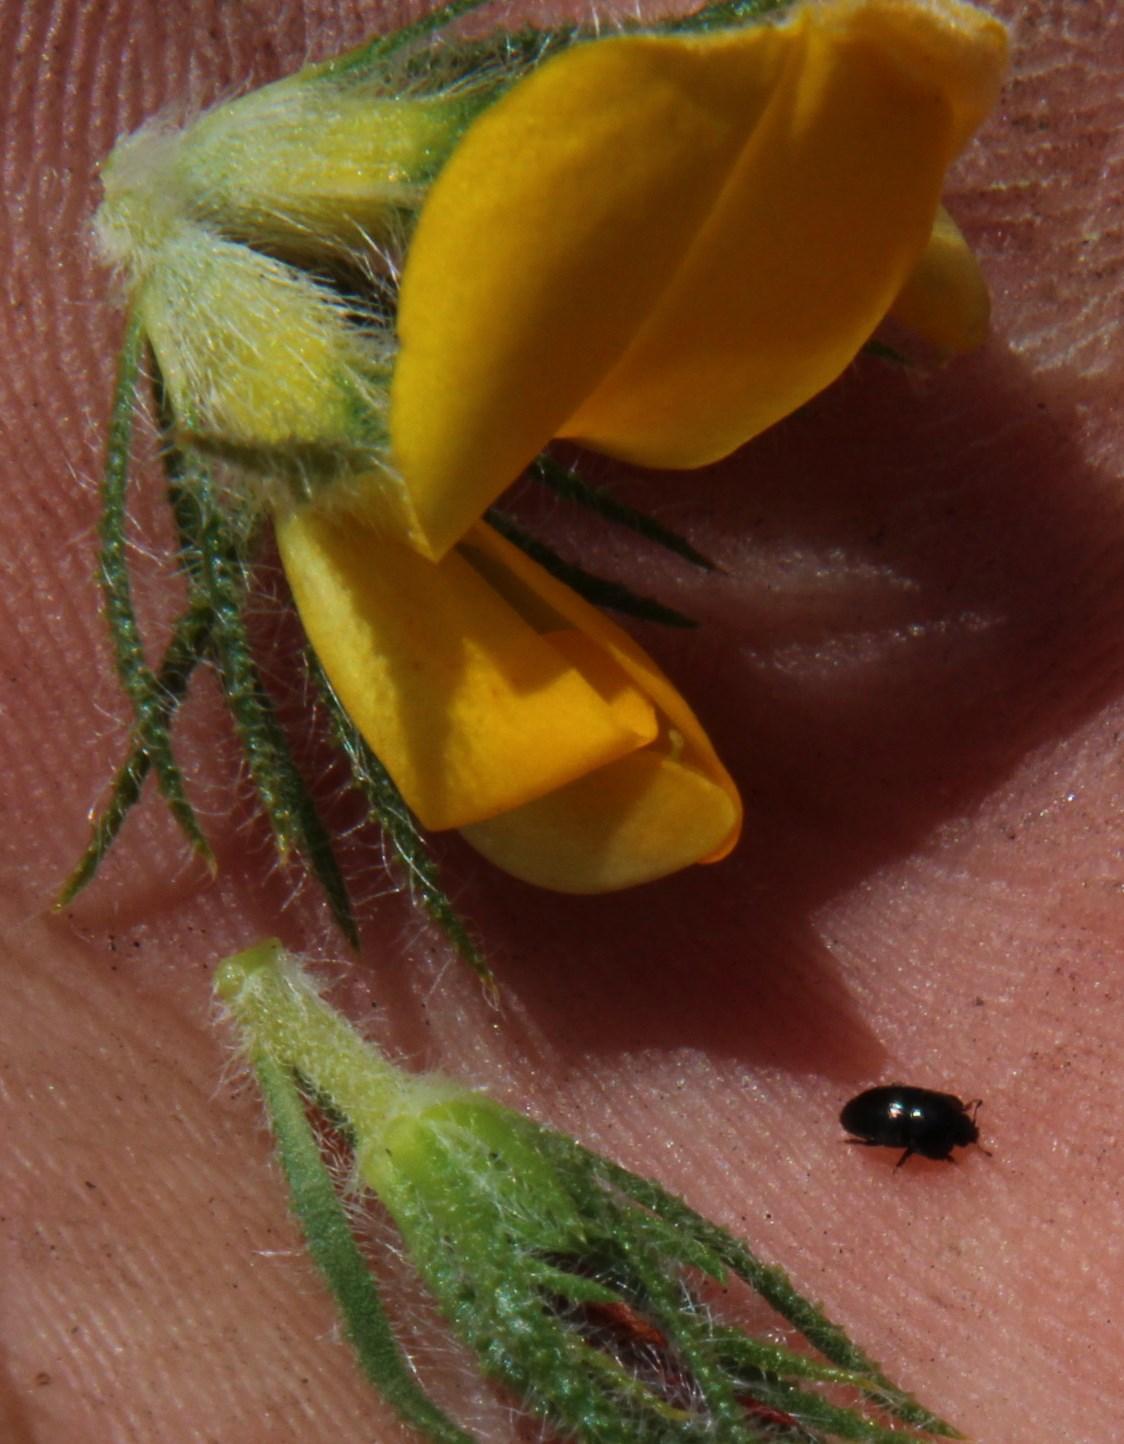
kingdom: Plantae
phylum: Tracheophyta
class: Magnoliopsida
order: Fabales
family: Fabaceae
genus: Aspalathus
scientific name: Aspalathus ciliaris
